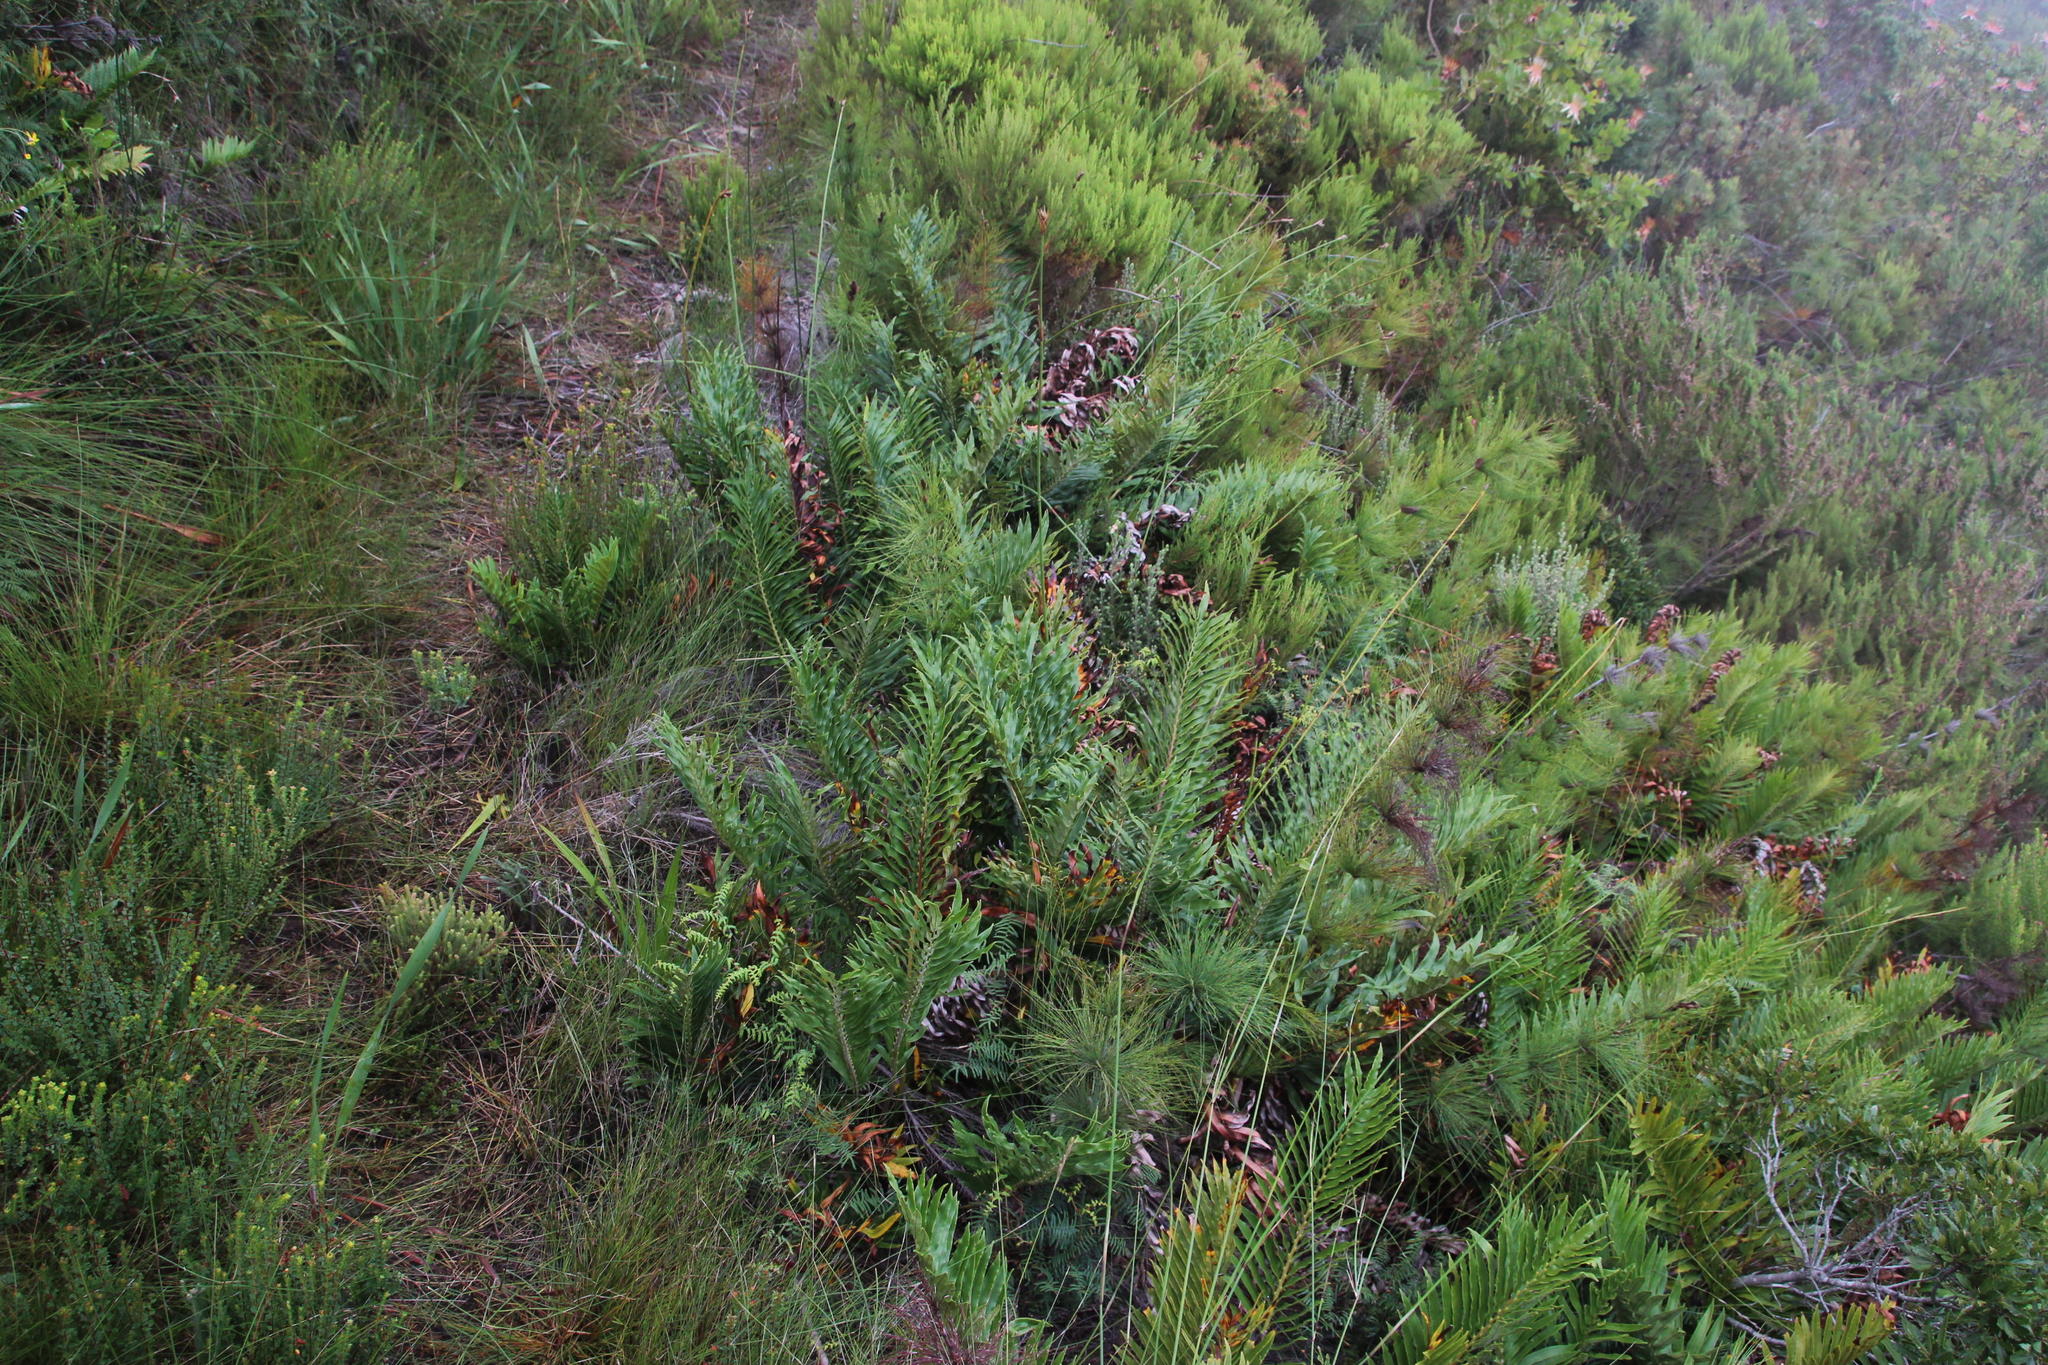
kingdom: Plantae
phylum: Tracheophyta
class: Polypodiopsida
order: Polypodiales
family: Blechnaceae
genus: Lomariocycas
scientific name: Lomariocycas tabularis
